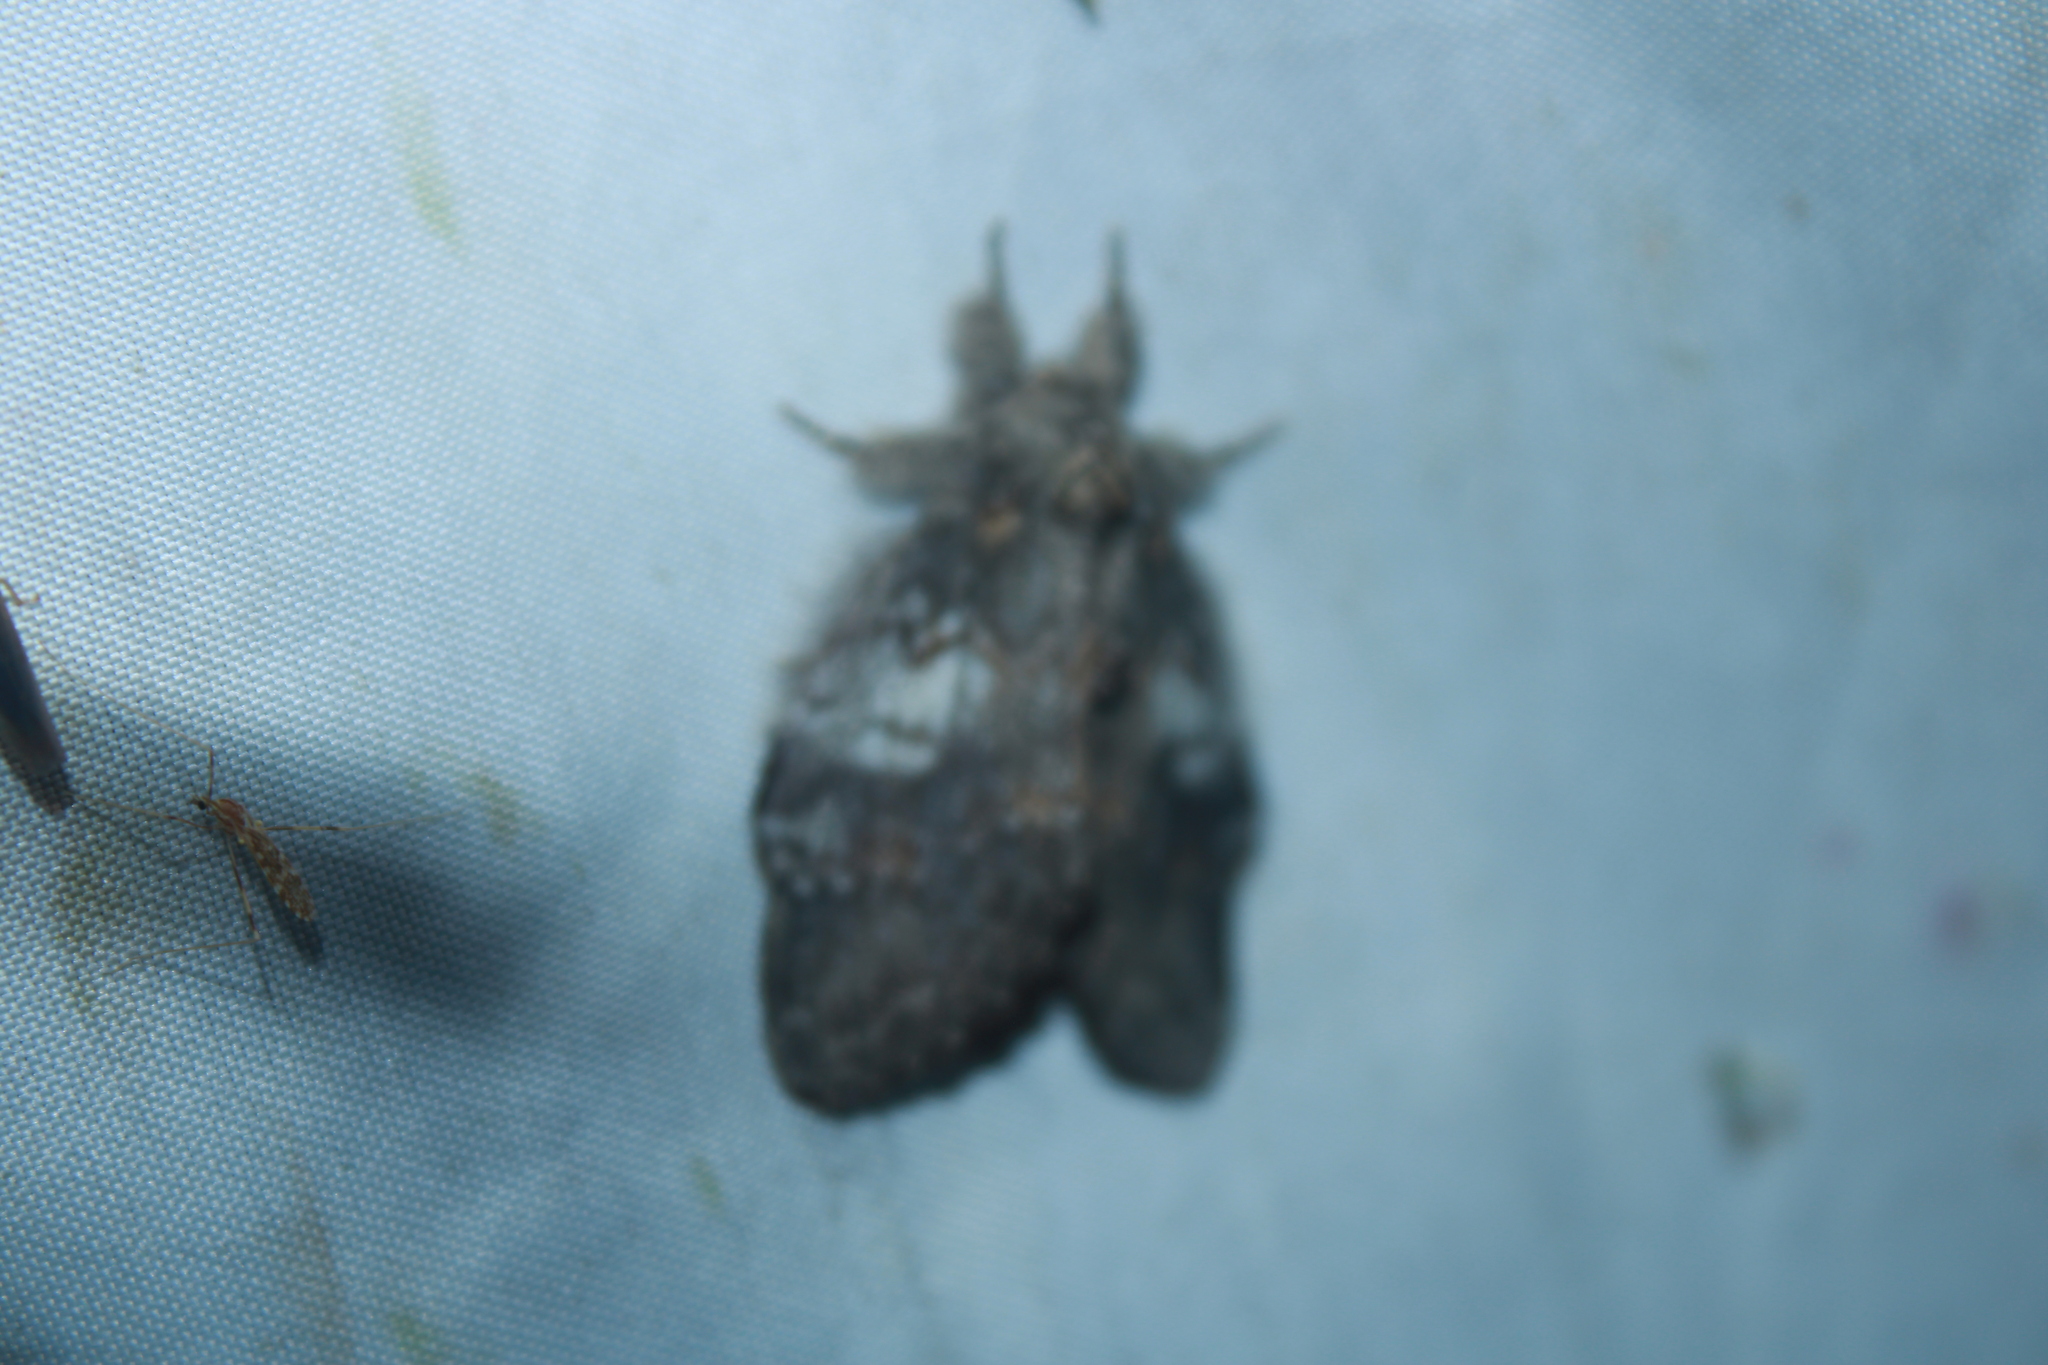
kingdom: Animalia
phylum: Arthropoda
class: Insecta
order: Lepidoptera
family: Notodontidae
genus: Peridea
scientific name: Peridea angulosa
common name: Angulose prominent
